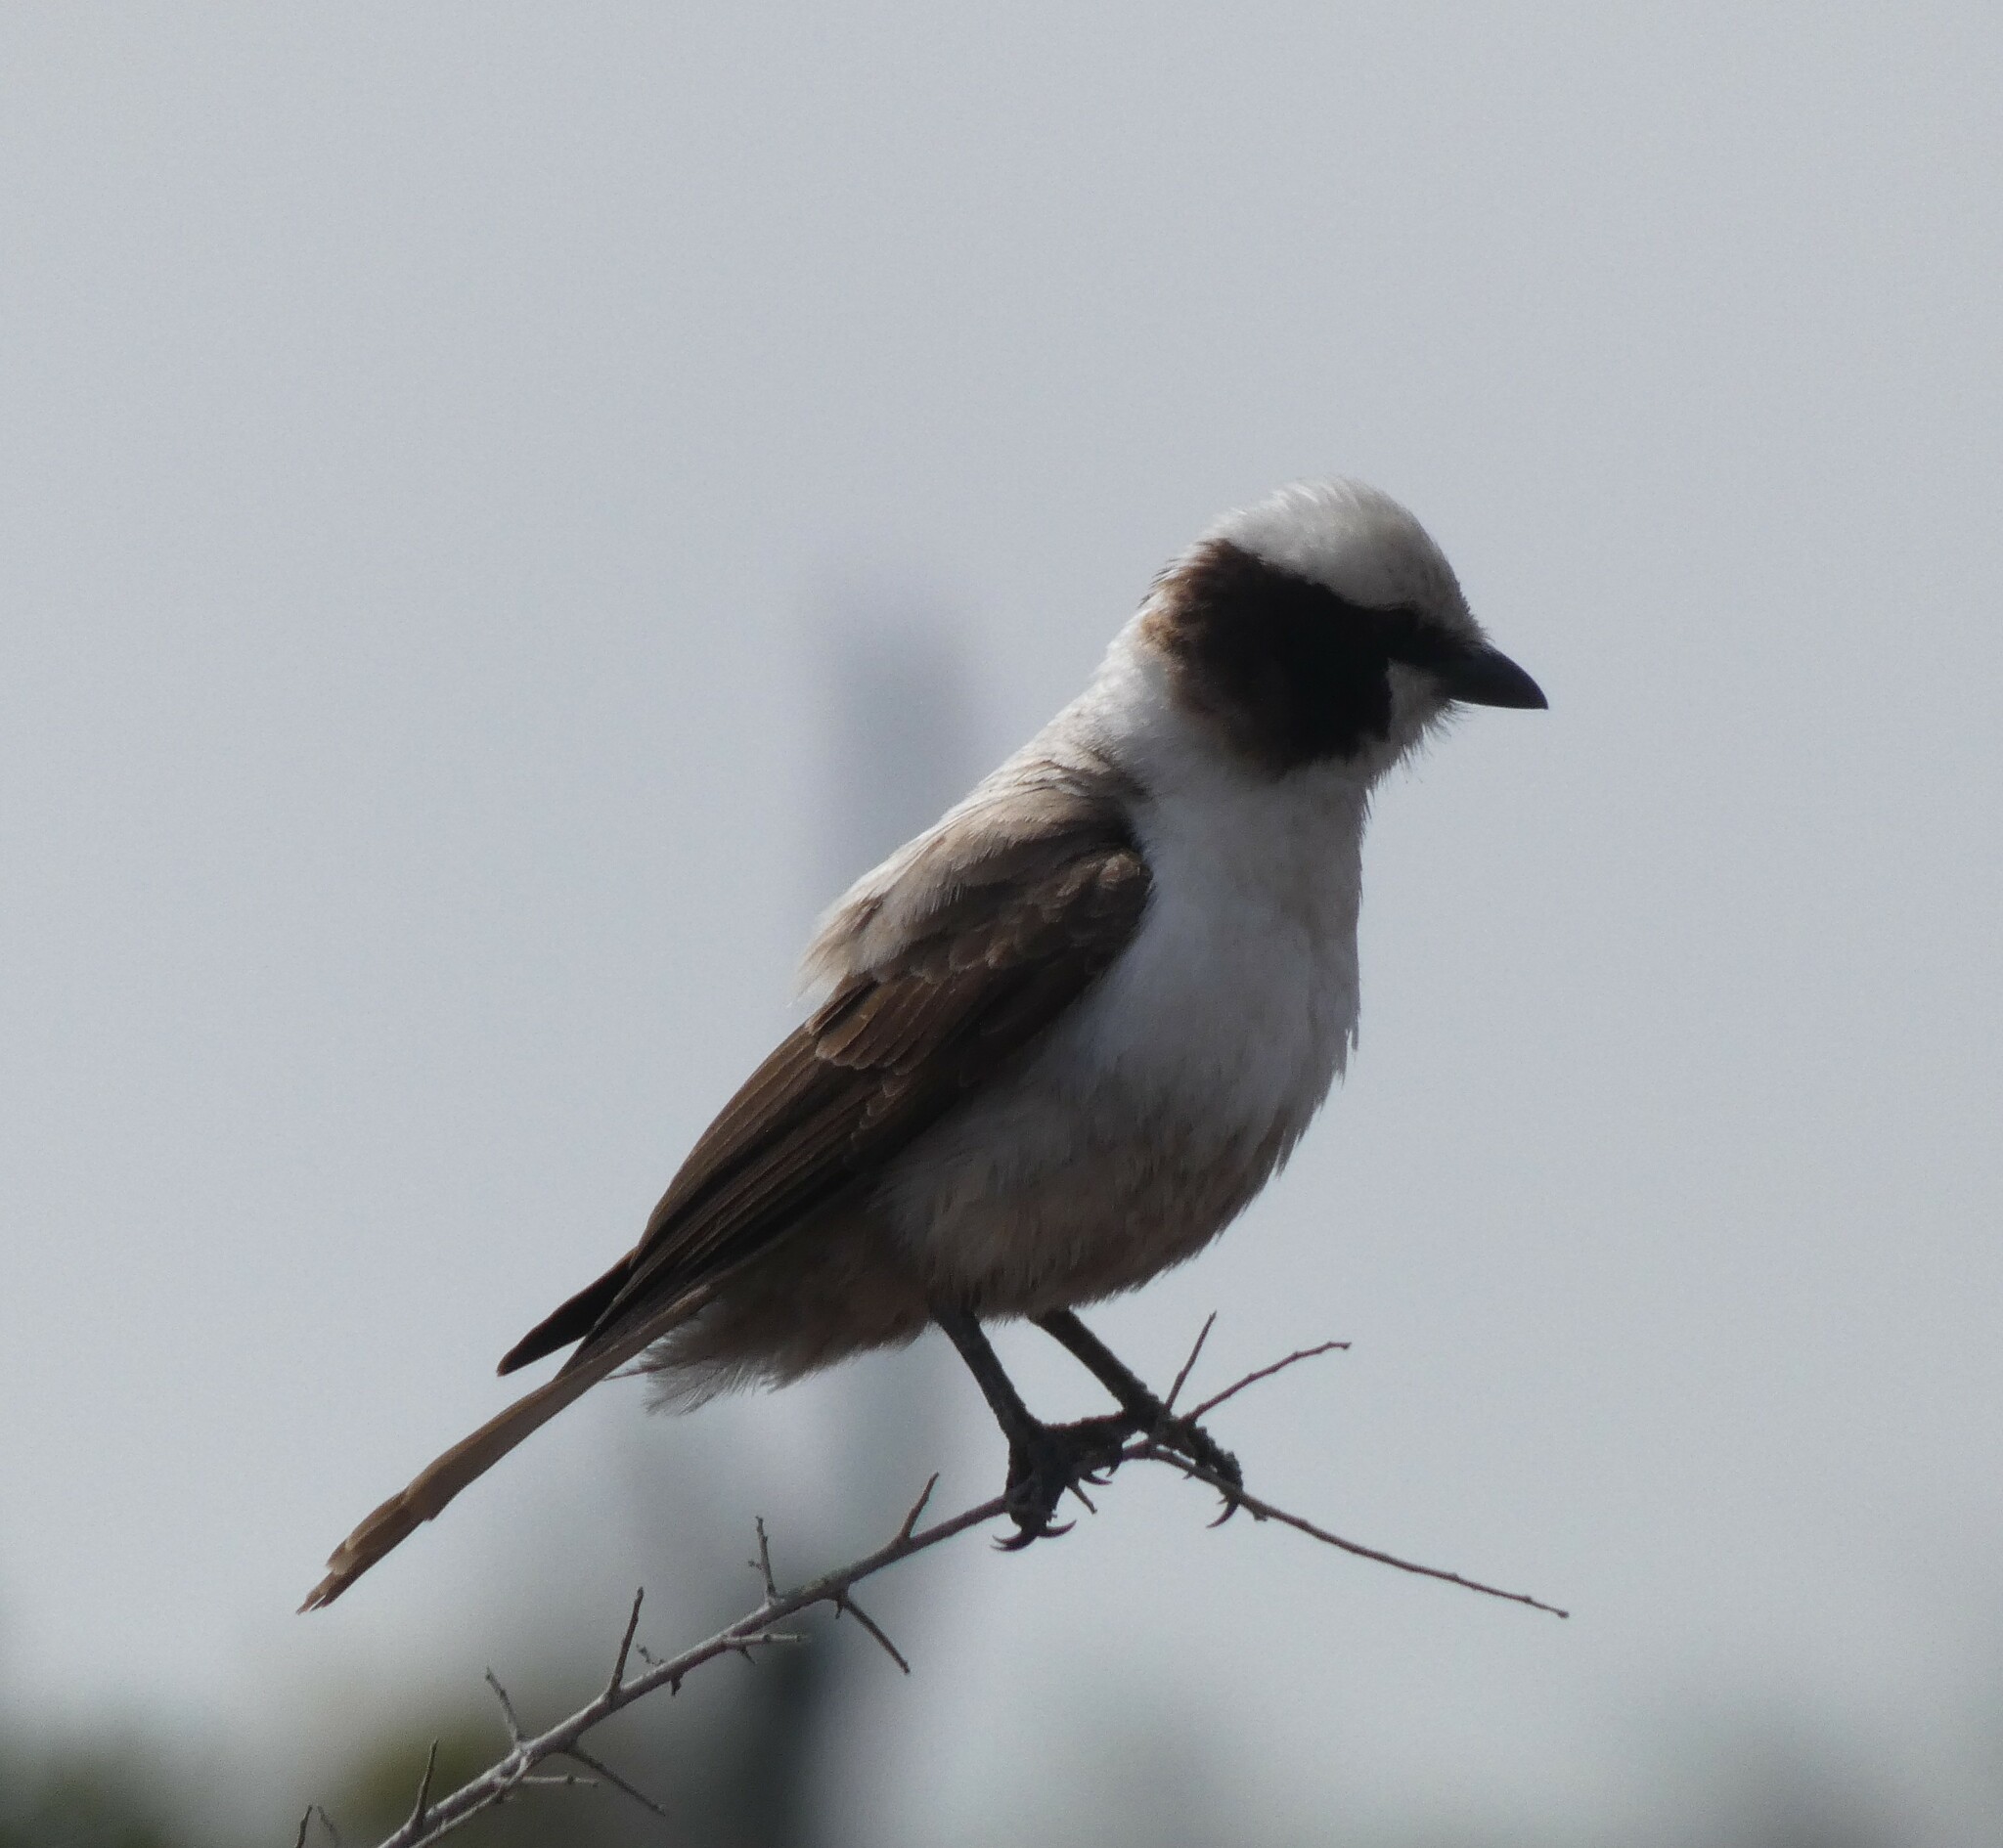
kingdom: Animalia
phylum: Chordata
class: Aves
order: Passeriformes
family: Laniidae
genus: Eurocephalus
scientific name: Eurocephalus anguitimens
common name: Southern white-crowned shrike
